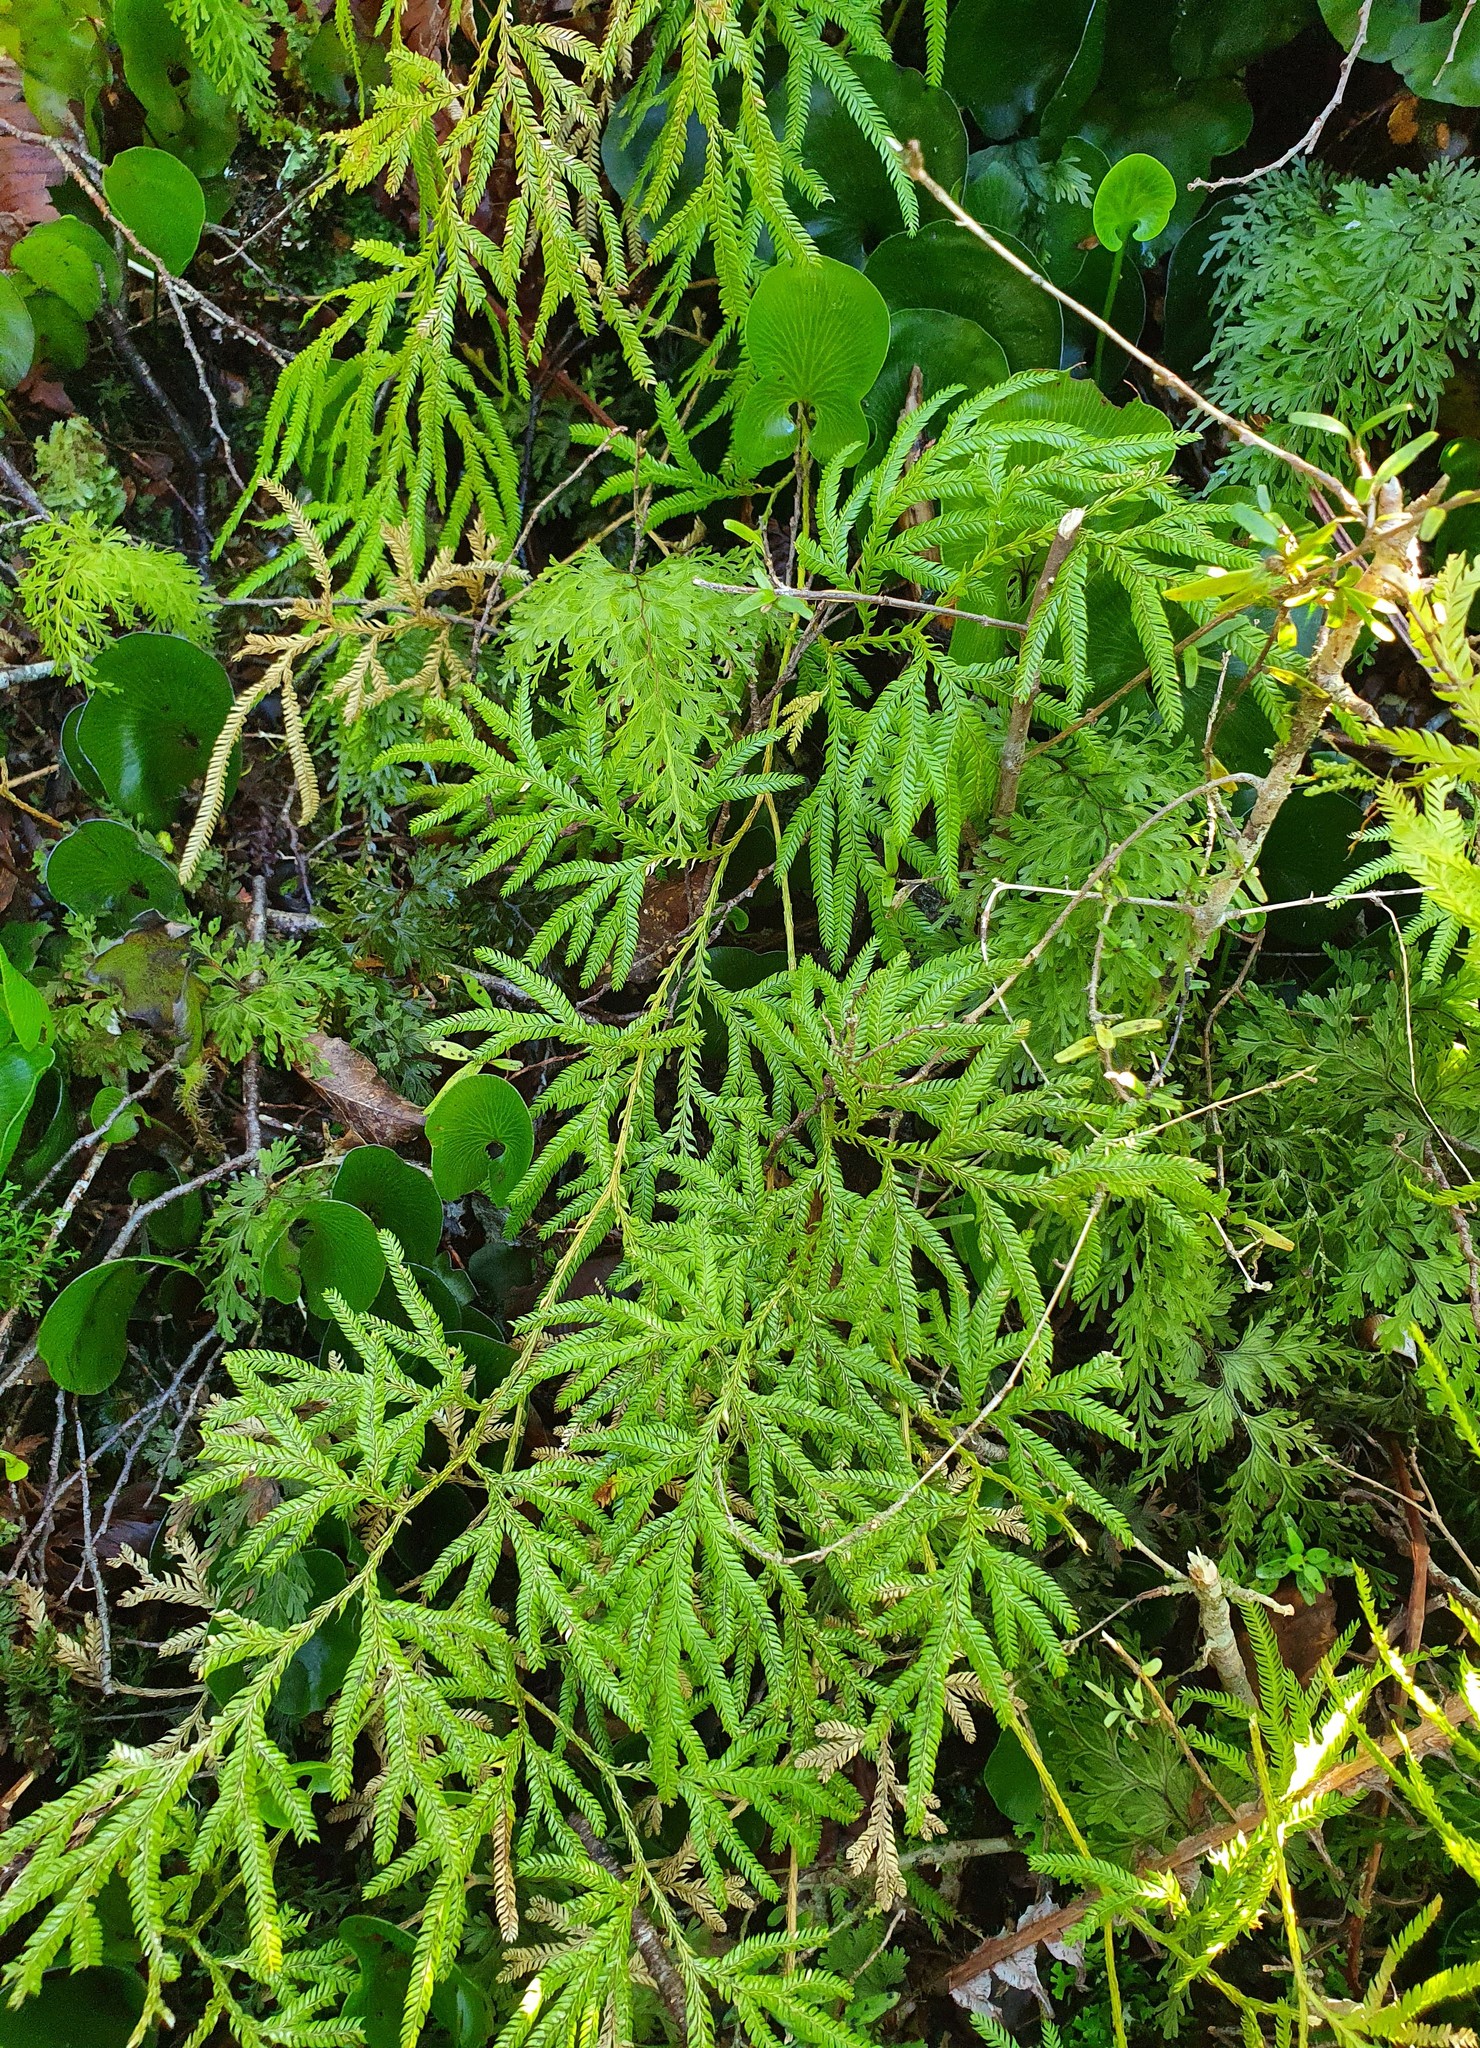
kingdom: Plantae
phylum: Tracheophyta
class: Lycopodiopsida
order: Lycopodiales
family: Lycopodiaceae
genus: Lycopodium
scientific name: Lycopodium volubile
